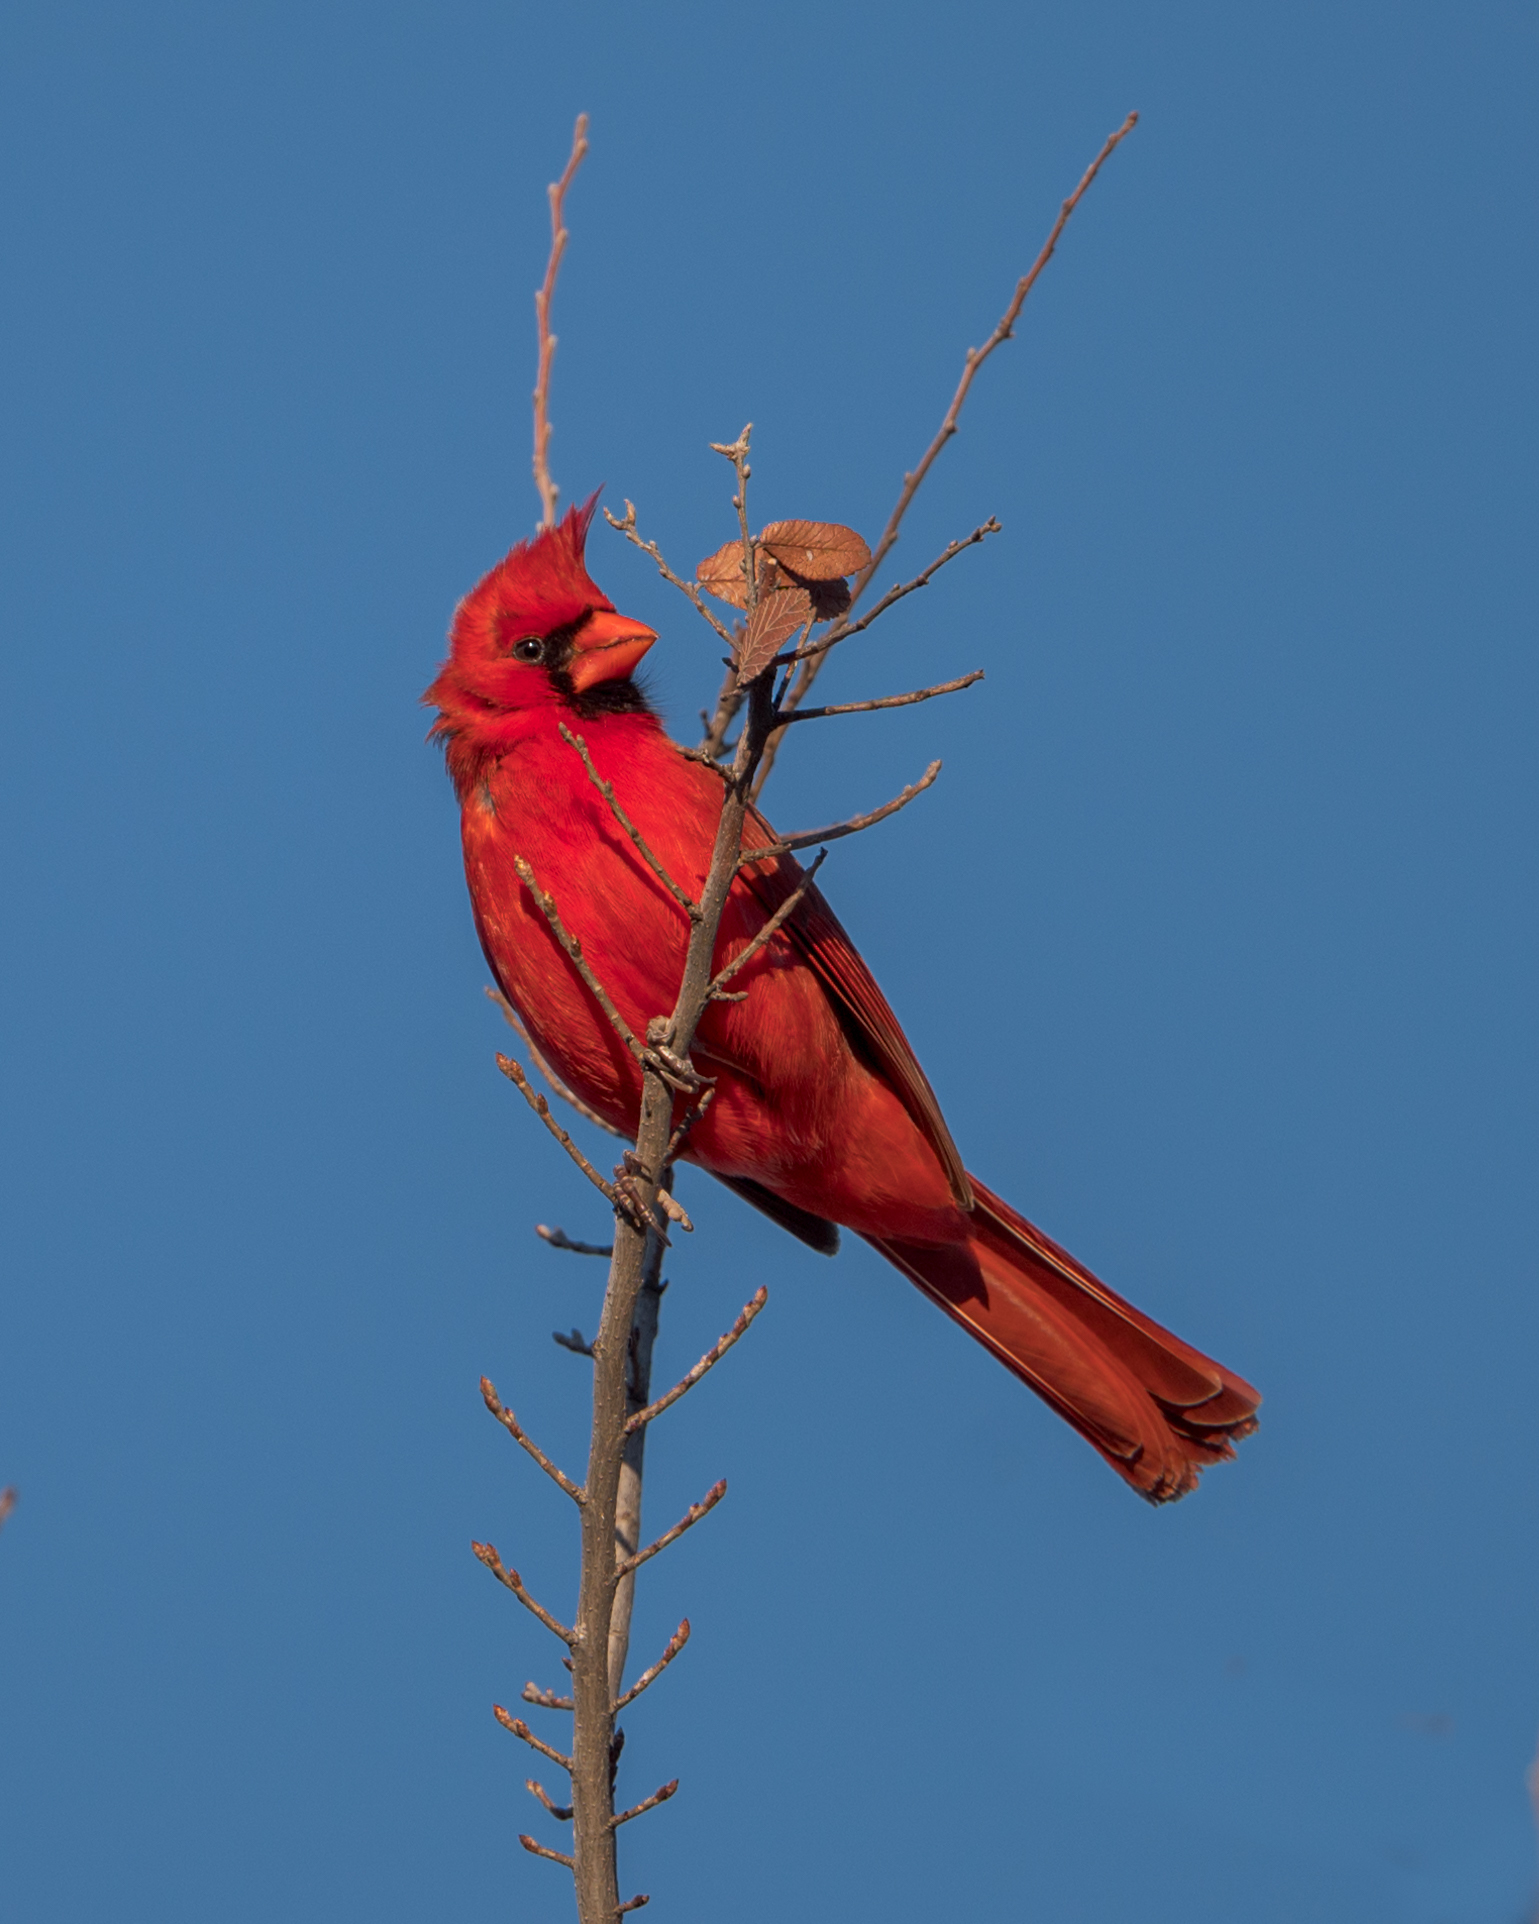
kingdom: Animalia
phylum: Chordata
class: Aves
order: Passeriformes
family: Cardinalidae
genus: Cardinalis
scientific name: Cardinalis cardinalis
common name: Northern cardinal
